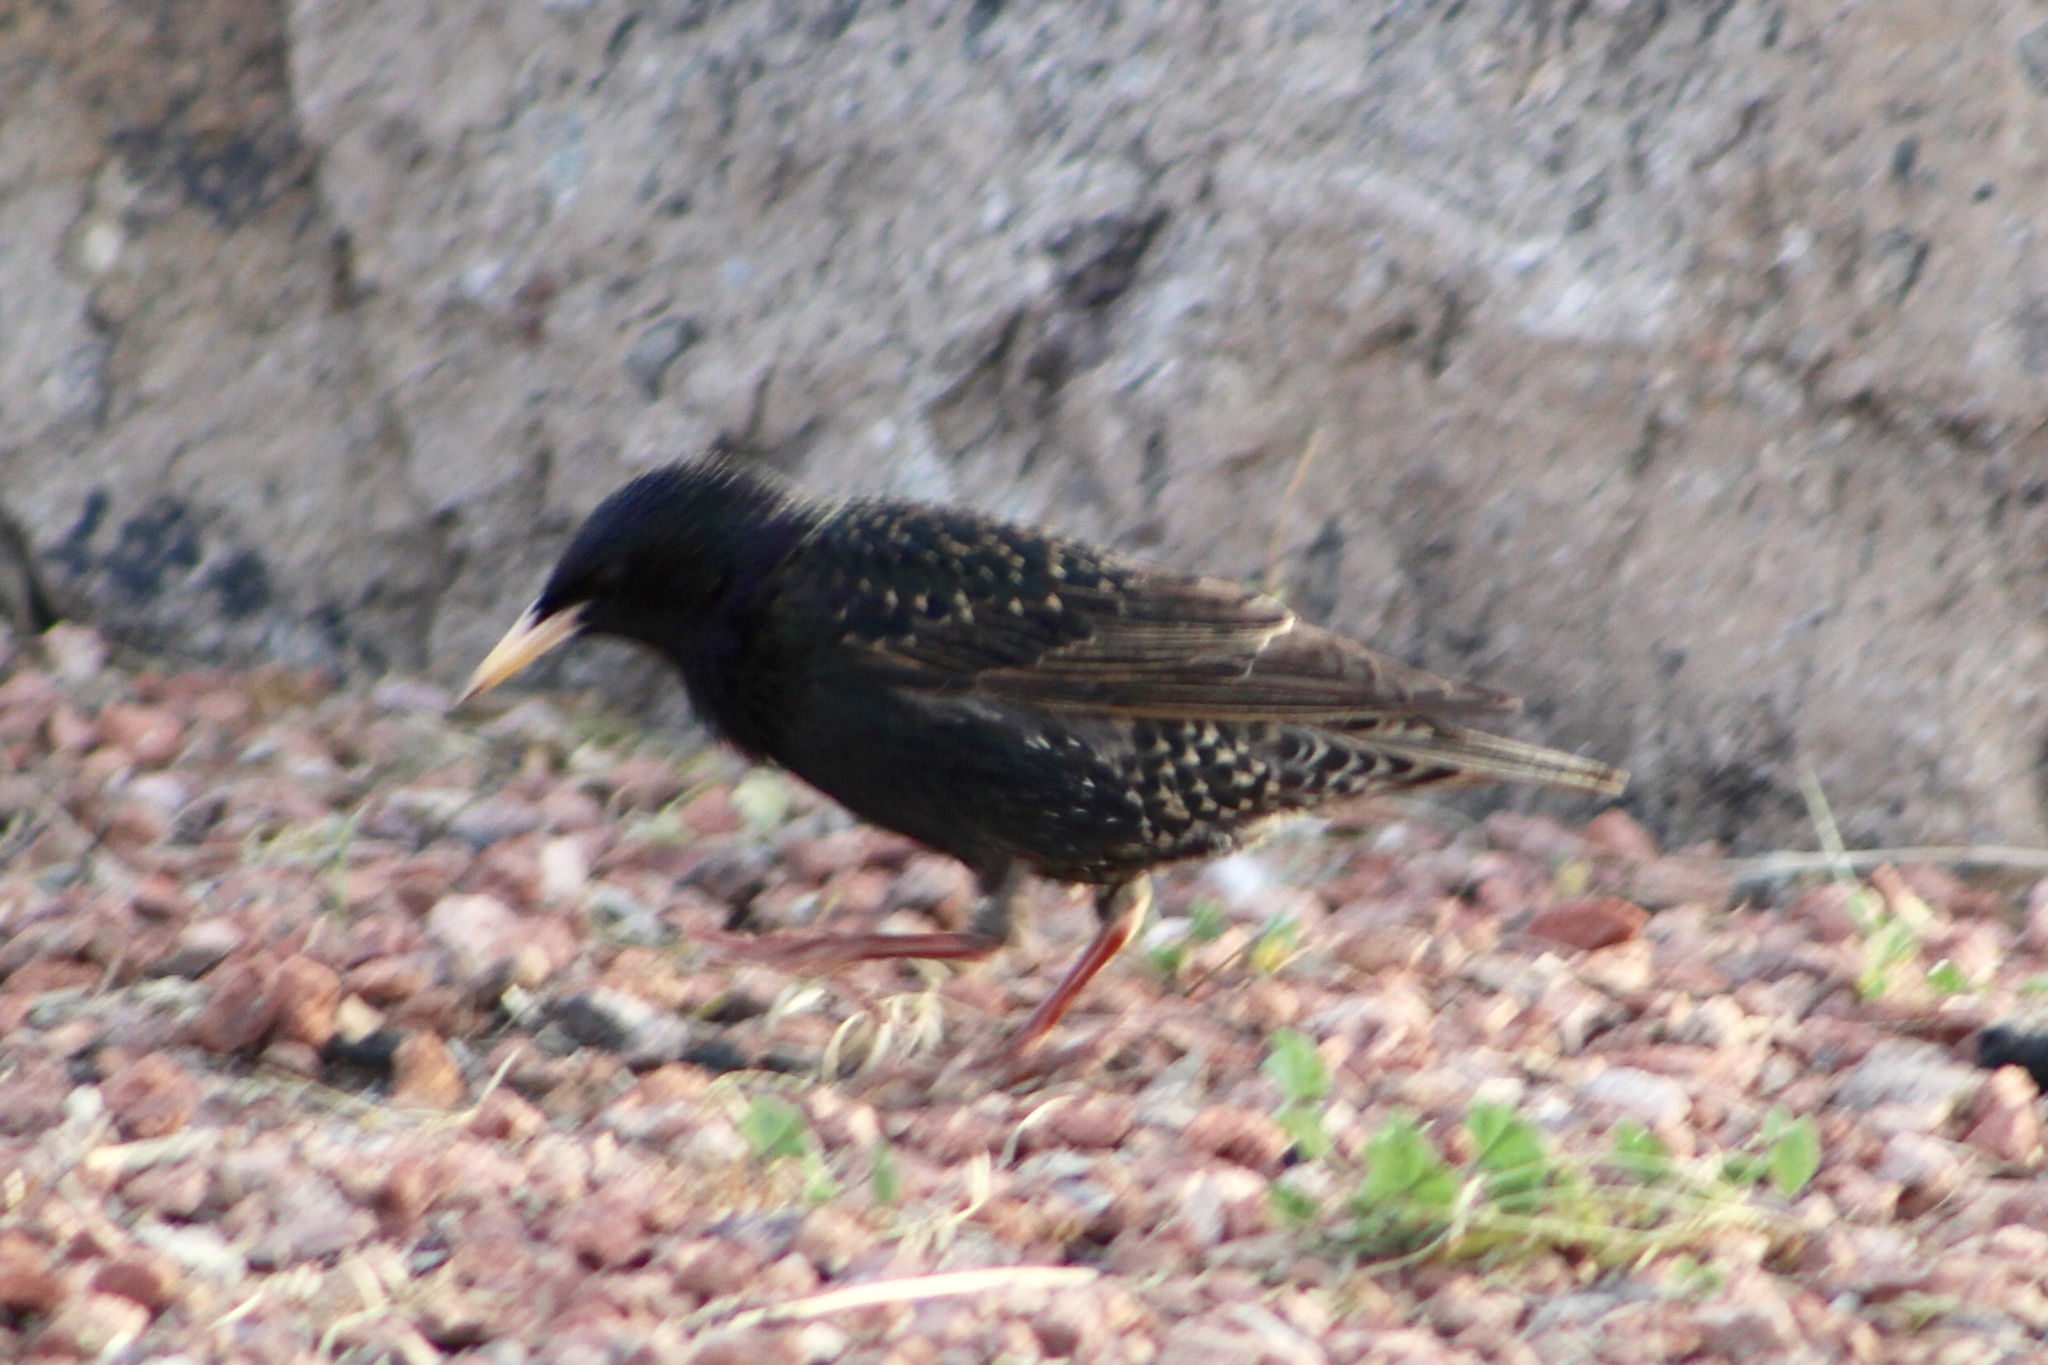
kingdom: Animalia
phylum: Chordata
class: Aves
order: Passeriformes
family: Sturnidae
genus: Sturnus
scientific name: Sturnus vulgaris
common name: Common starling
